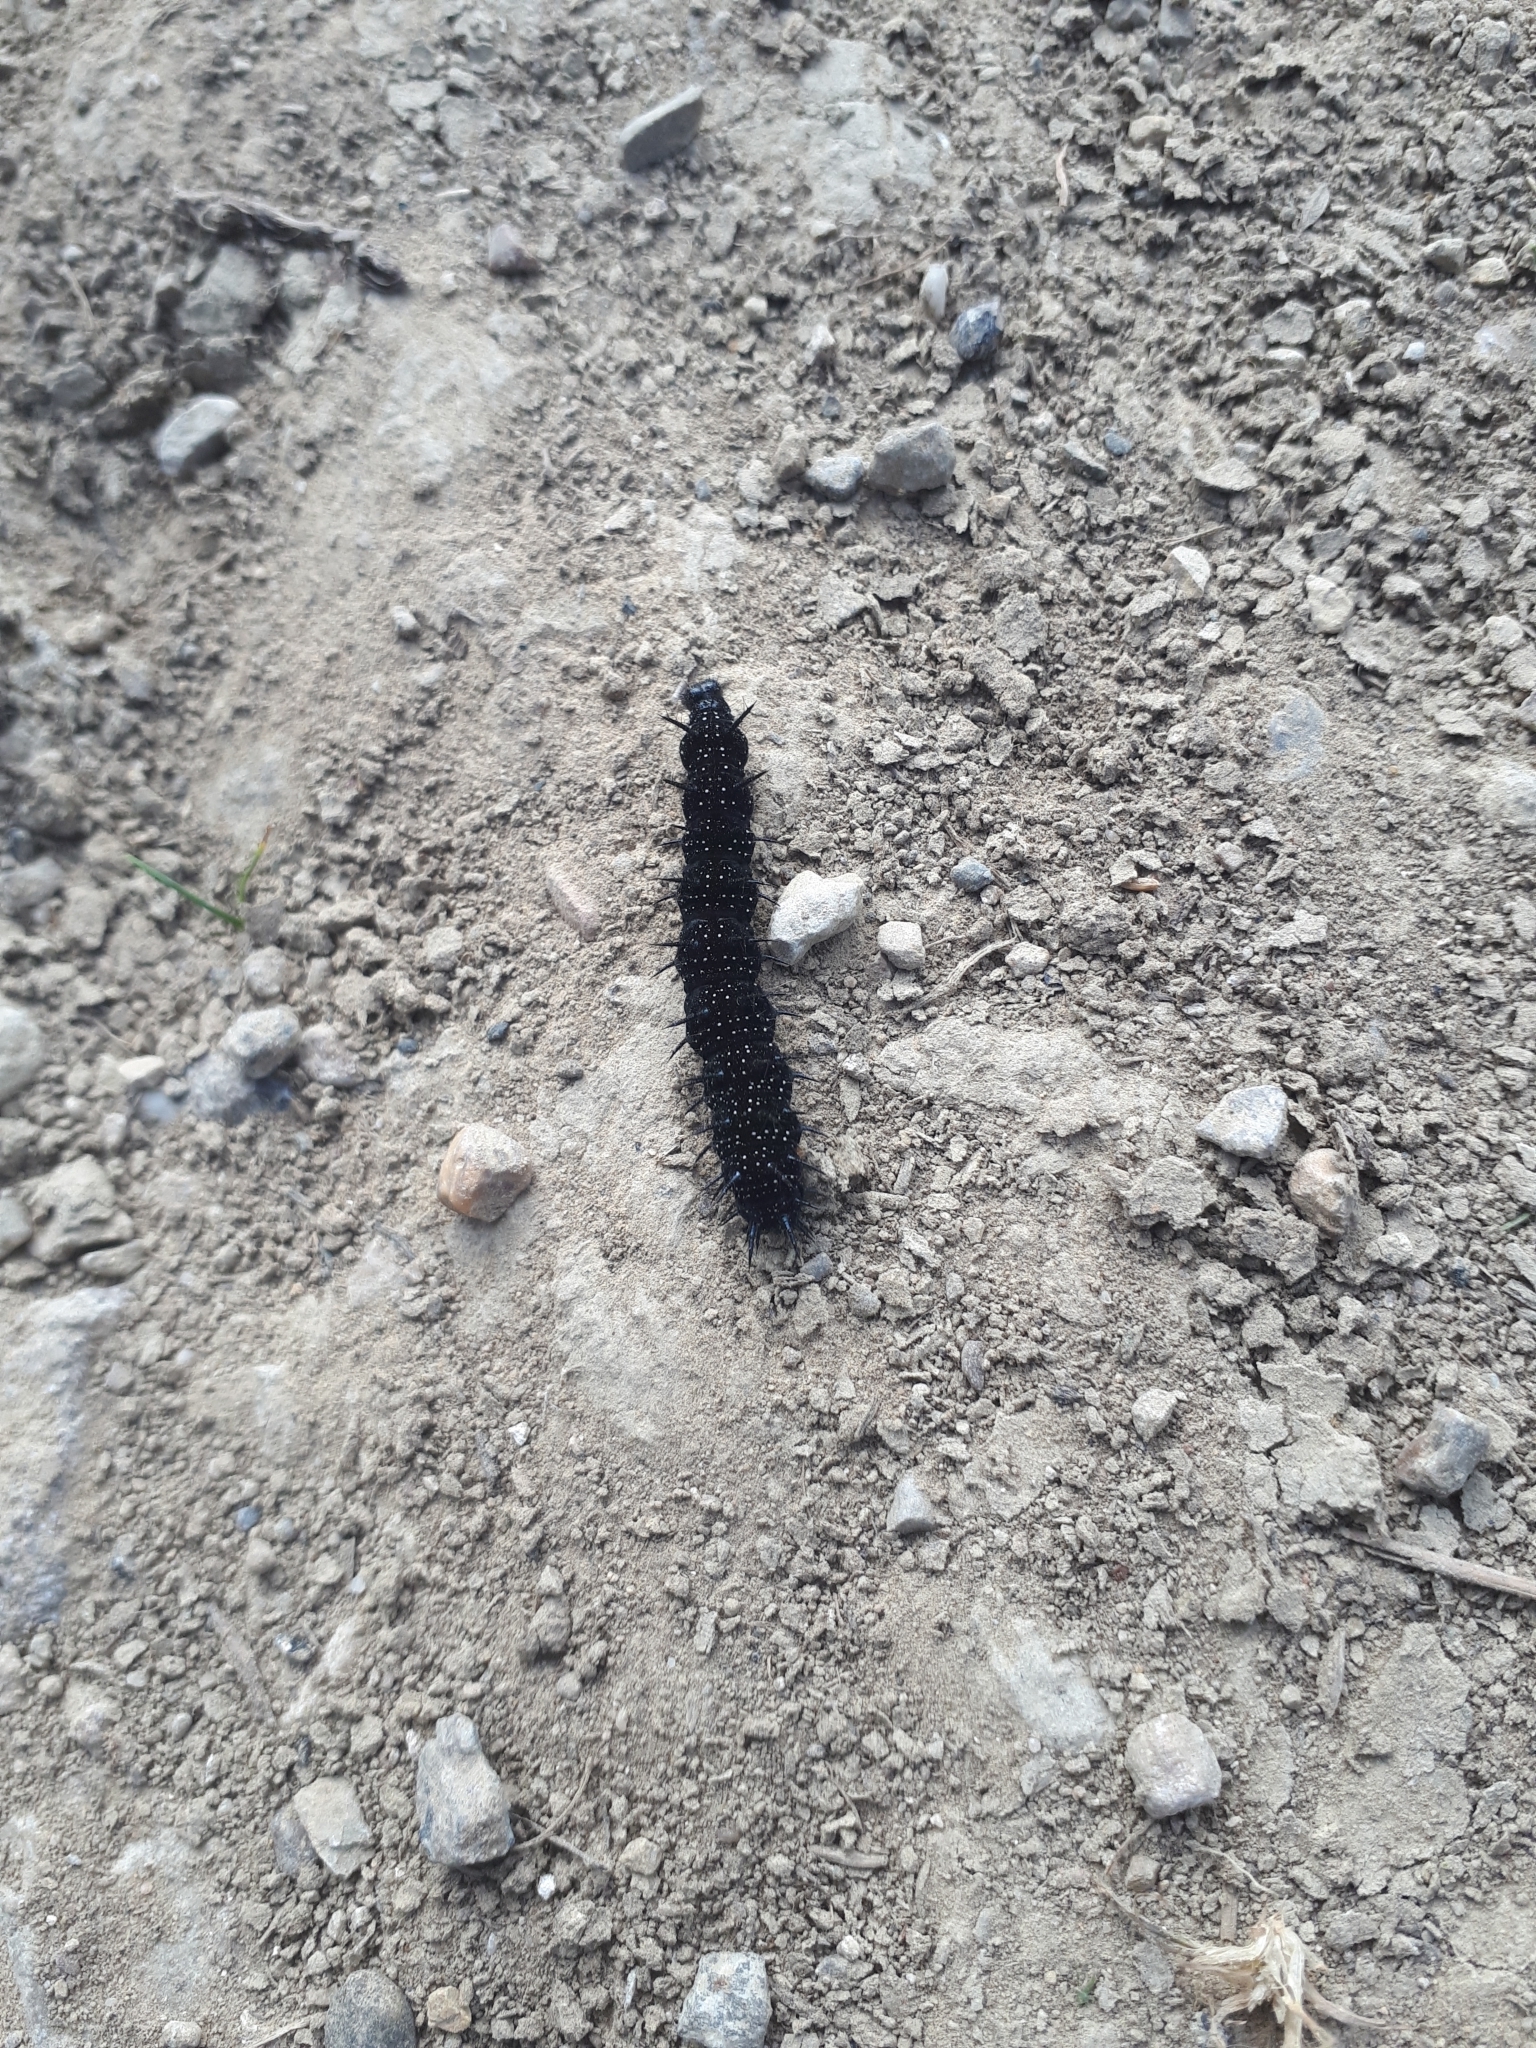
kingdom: Animalia
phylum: Arthropoda
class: Insecta
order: Lepidoptera
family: Nymphalidae
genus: Aglais
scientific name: Aglais io
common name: Peacock
